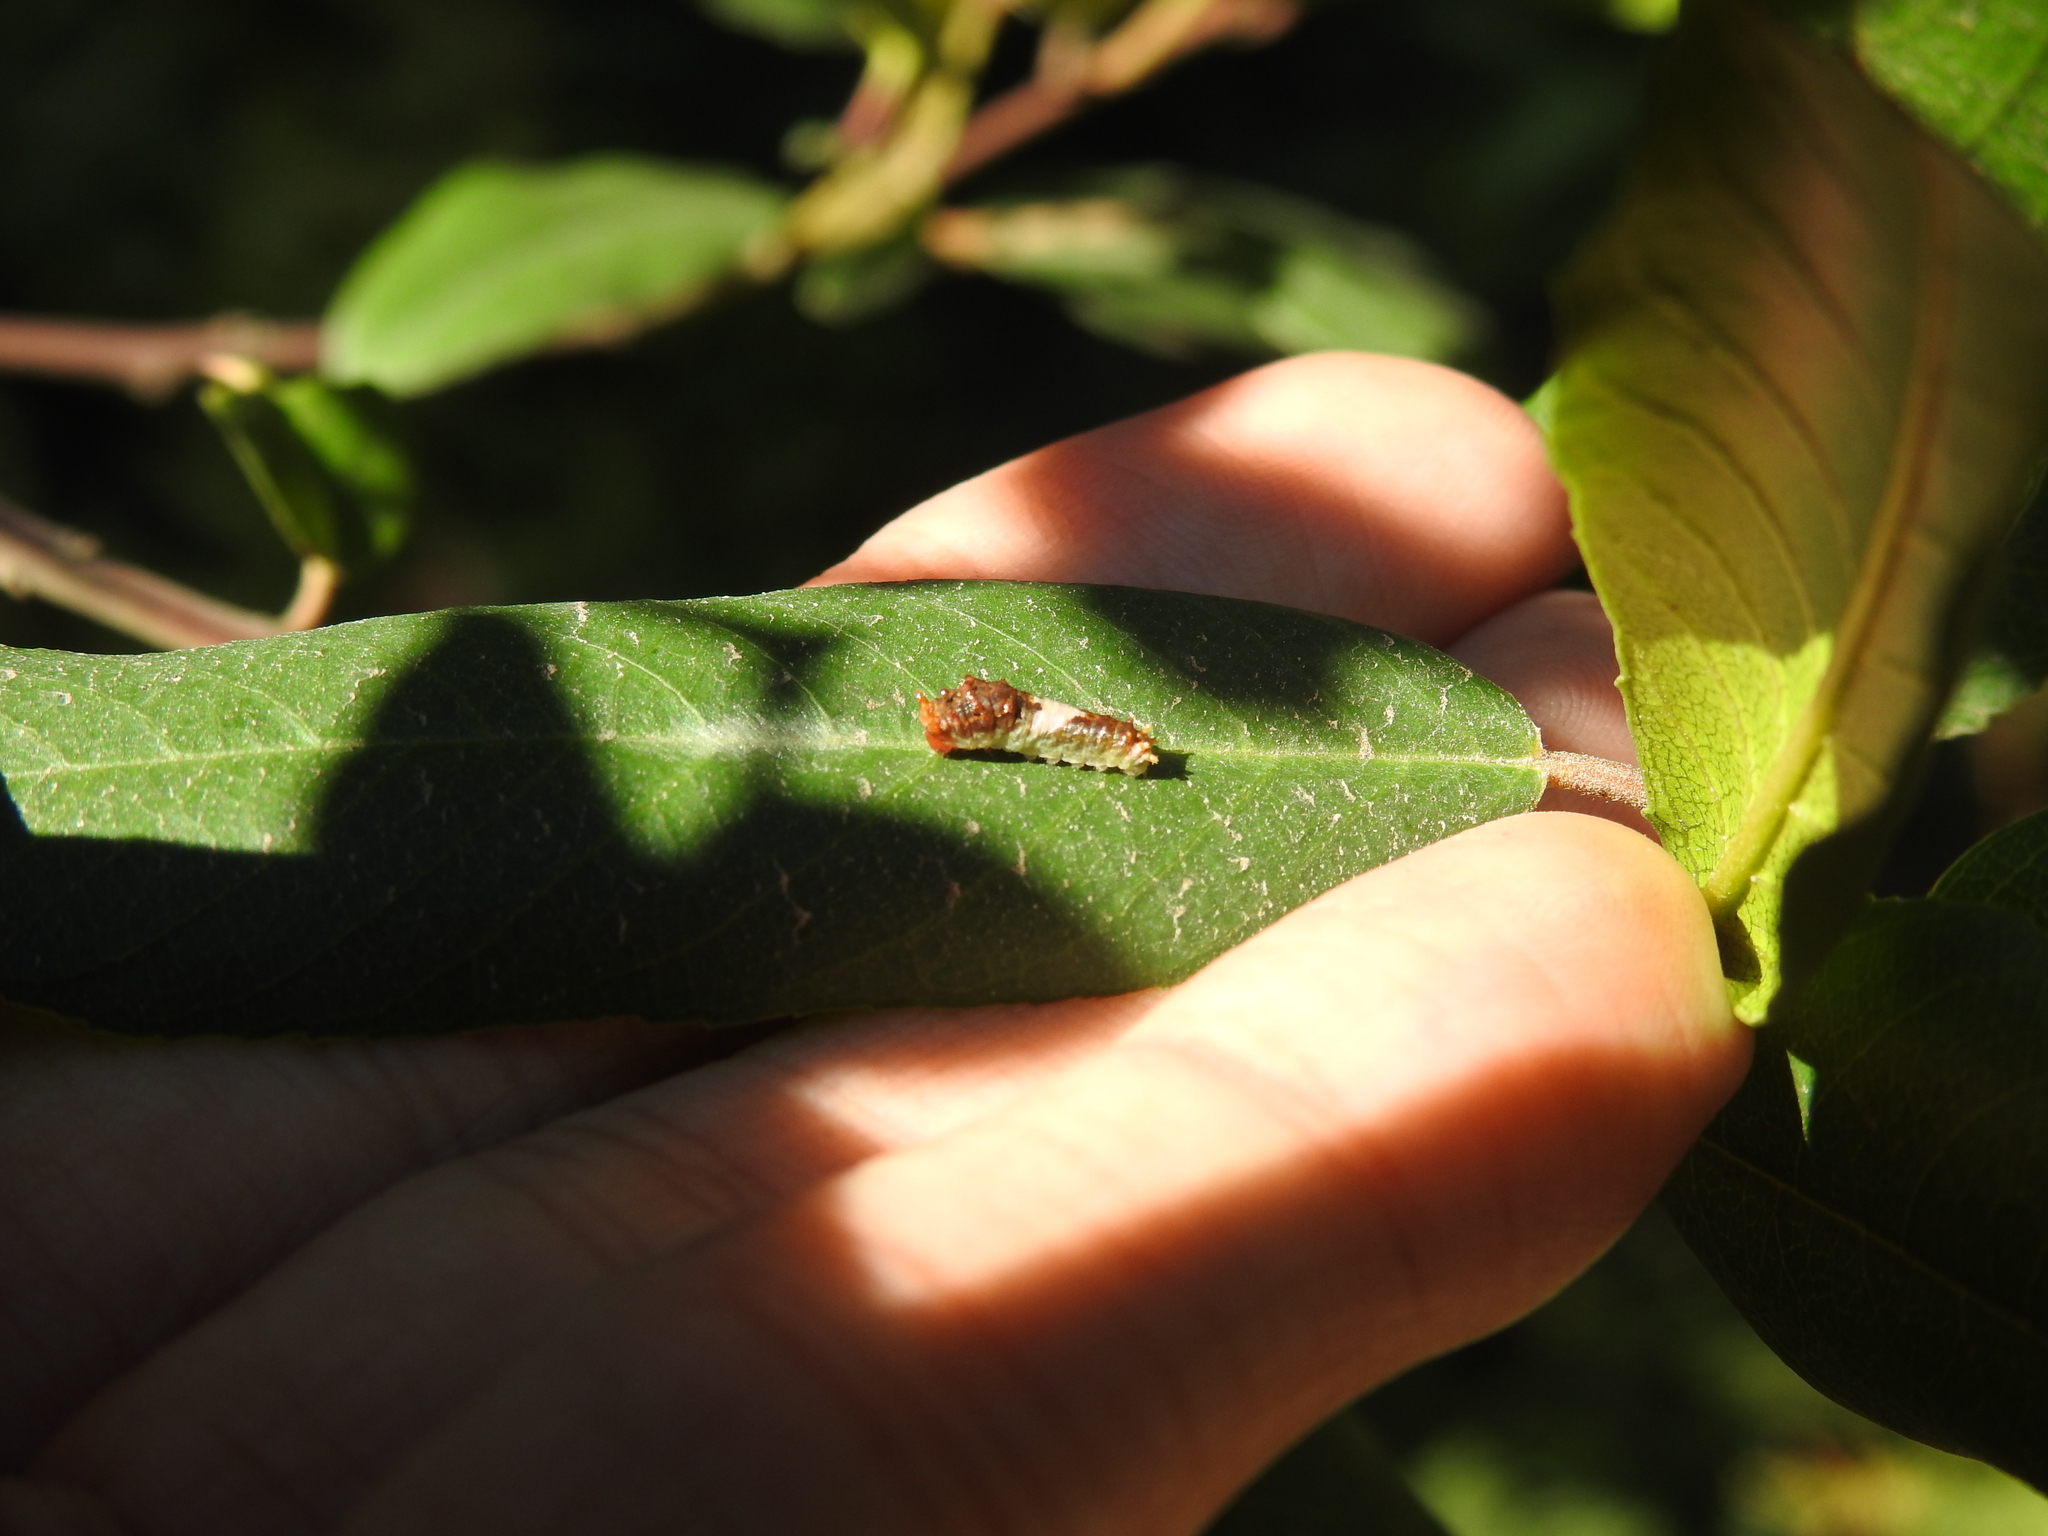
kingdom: Animalia
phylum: Arthropoda
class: Insecta
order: Lepidoptera
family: Papilionidae
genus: Papilio
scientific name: Papilio eurymedon
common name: Pale tiger swallowtail
